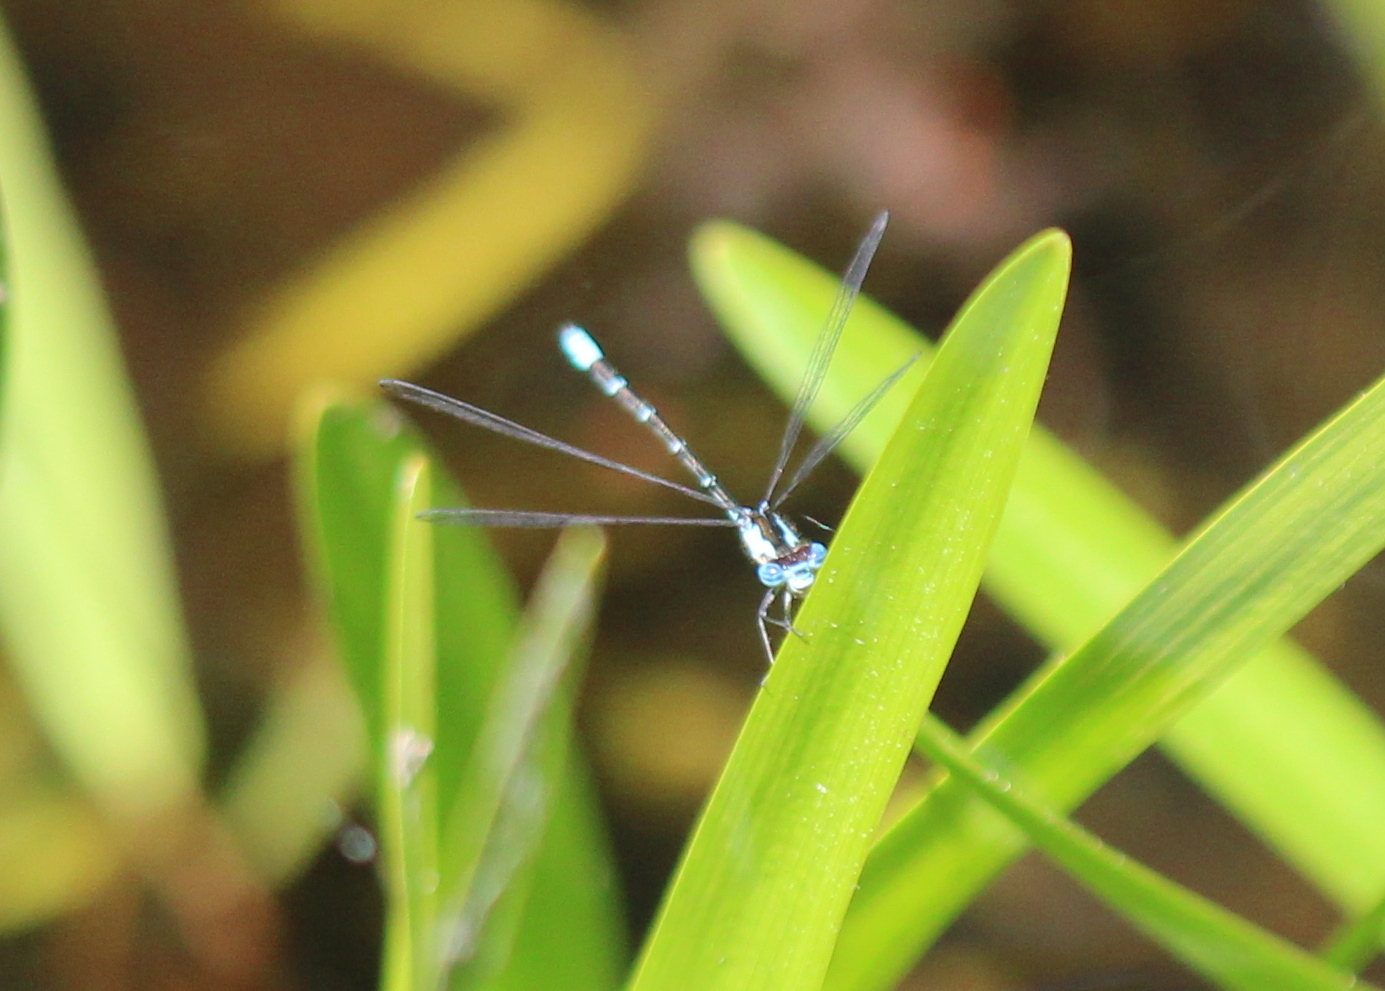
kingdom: Animalia
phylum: Arthropoda
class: Insecta
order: Odonata
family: Coenagrionidae
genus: Chromagrion
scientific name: Chromagrion conditum
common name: Aurora damsel
